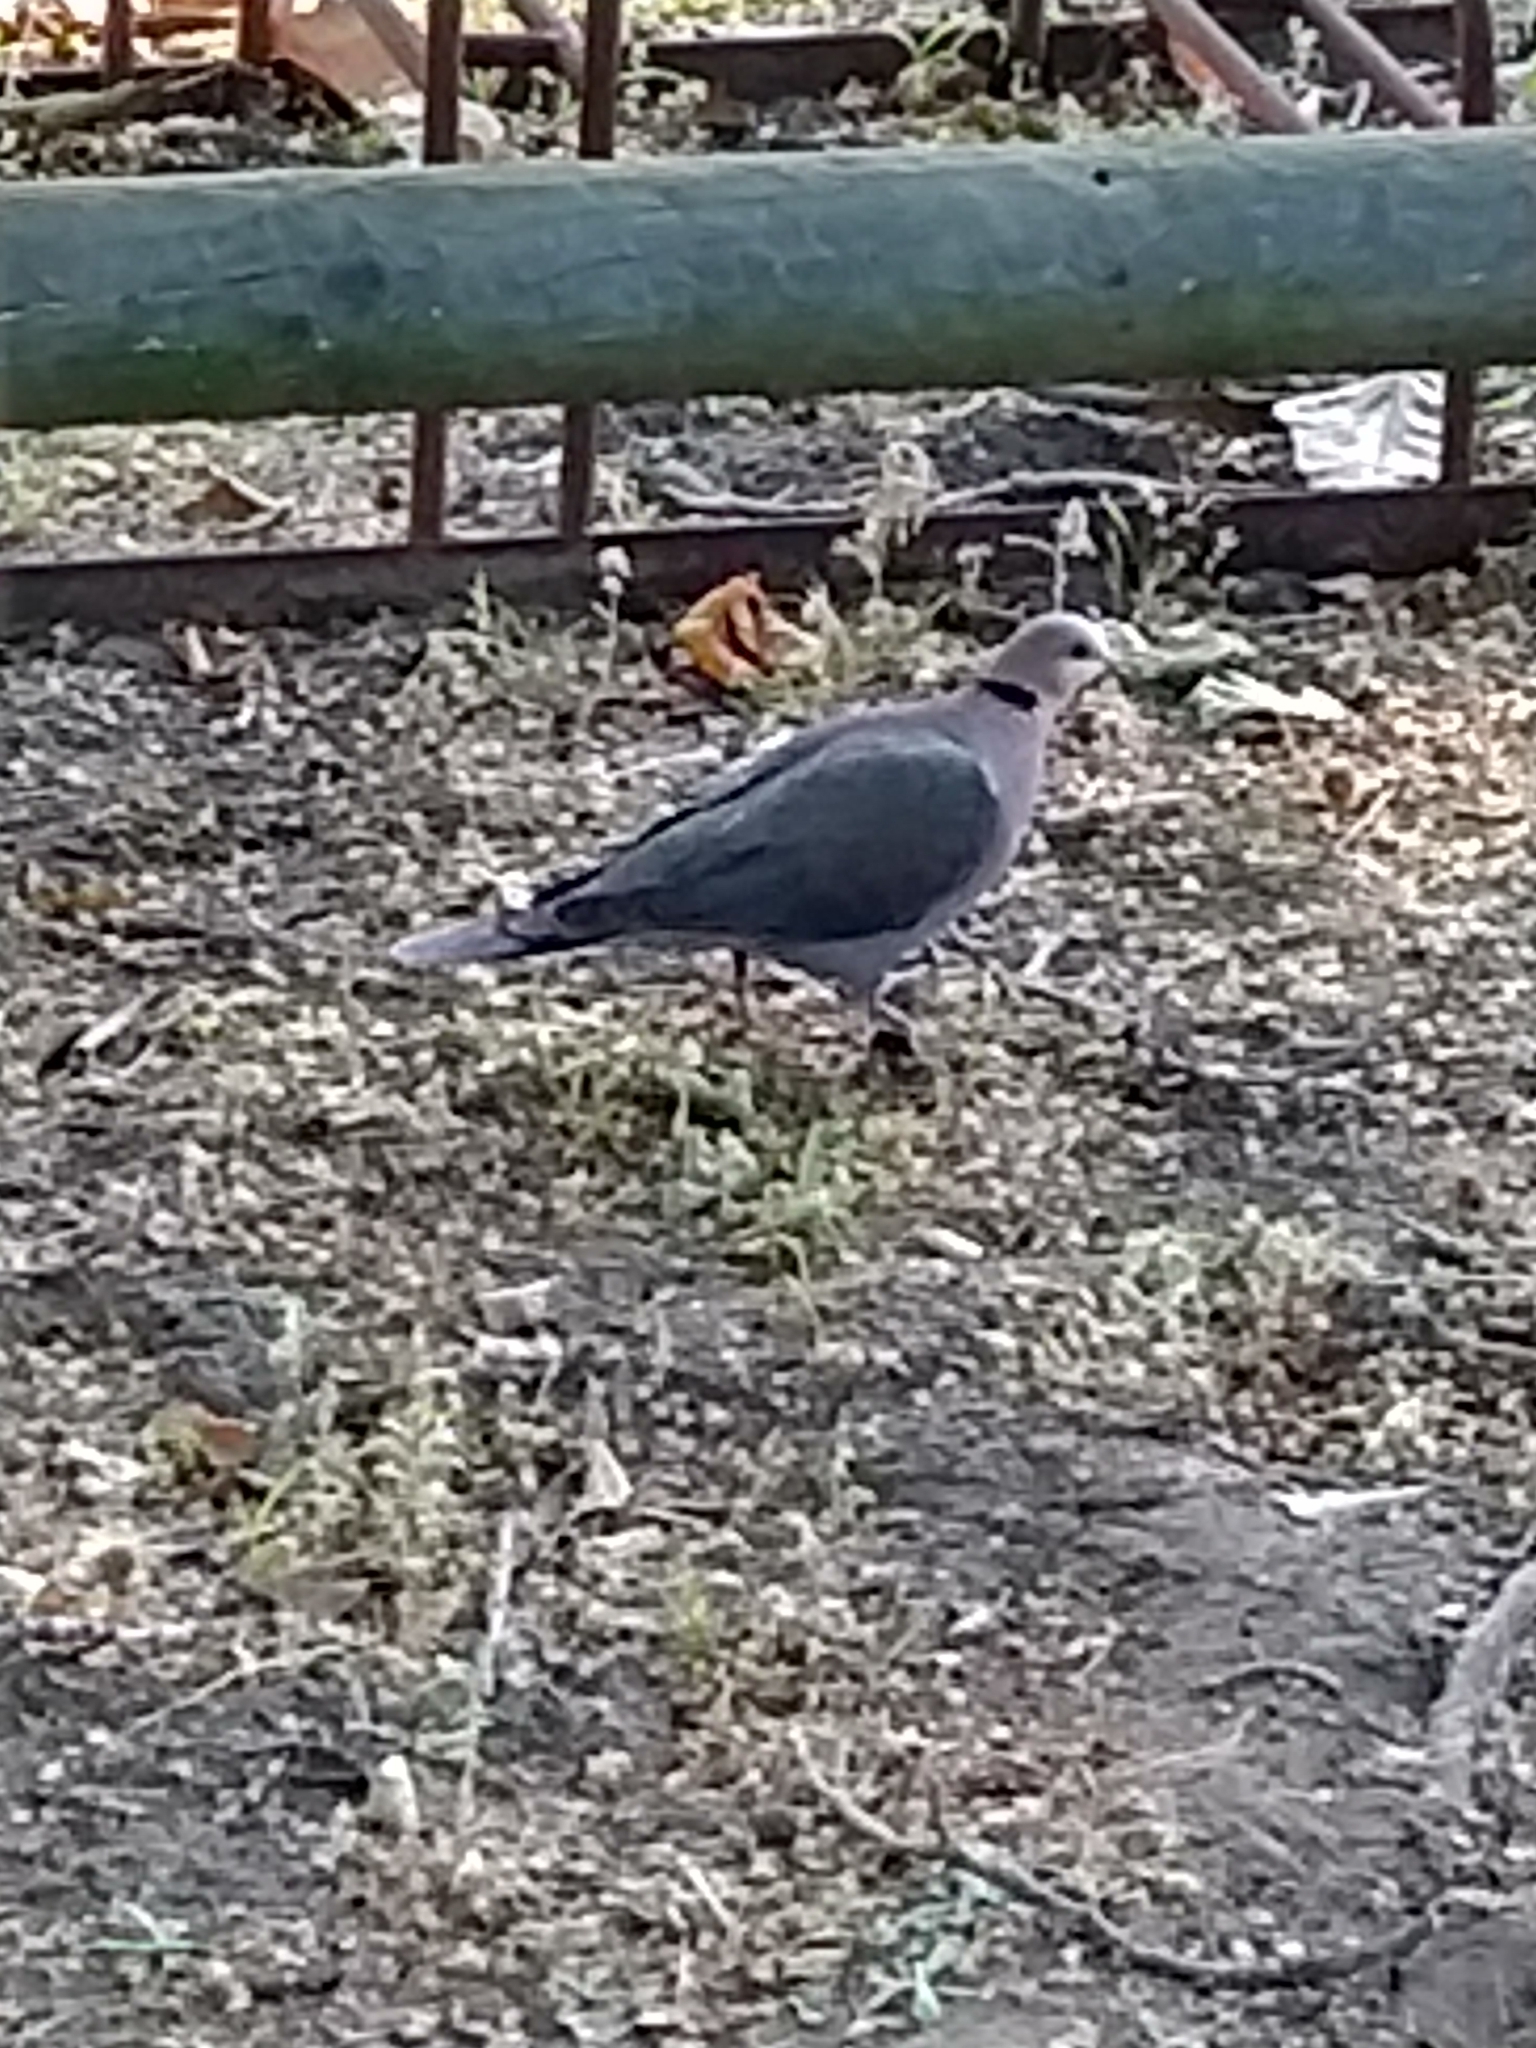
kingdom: Animalia
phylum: Chordata
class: Aves
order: Columbiformes
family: Columbidae
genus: Streptopelia
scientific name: Streptopelia semitorquata
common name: Red-eyed dove
